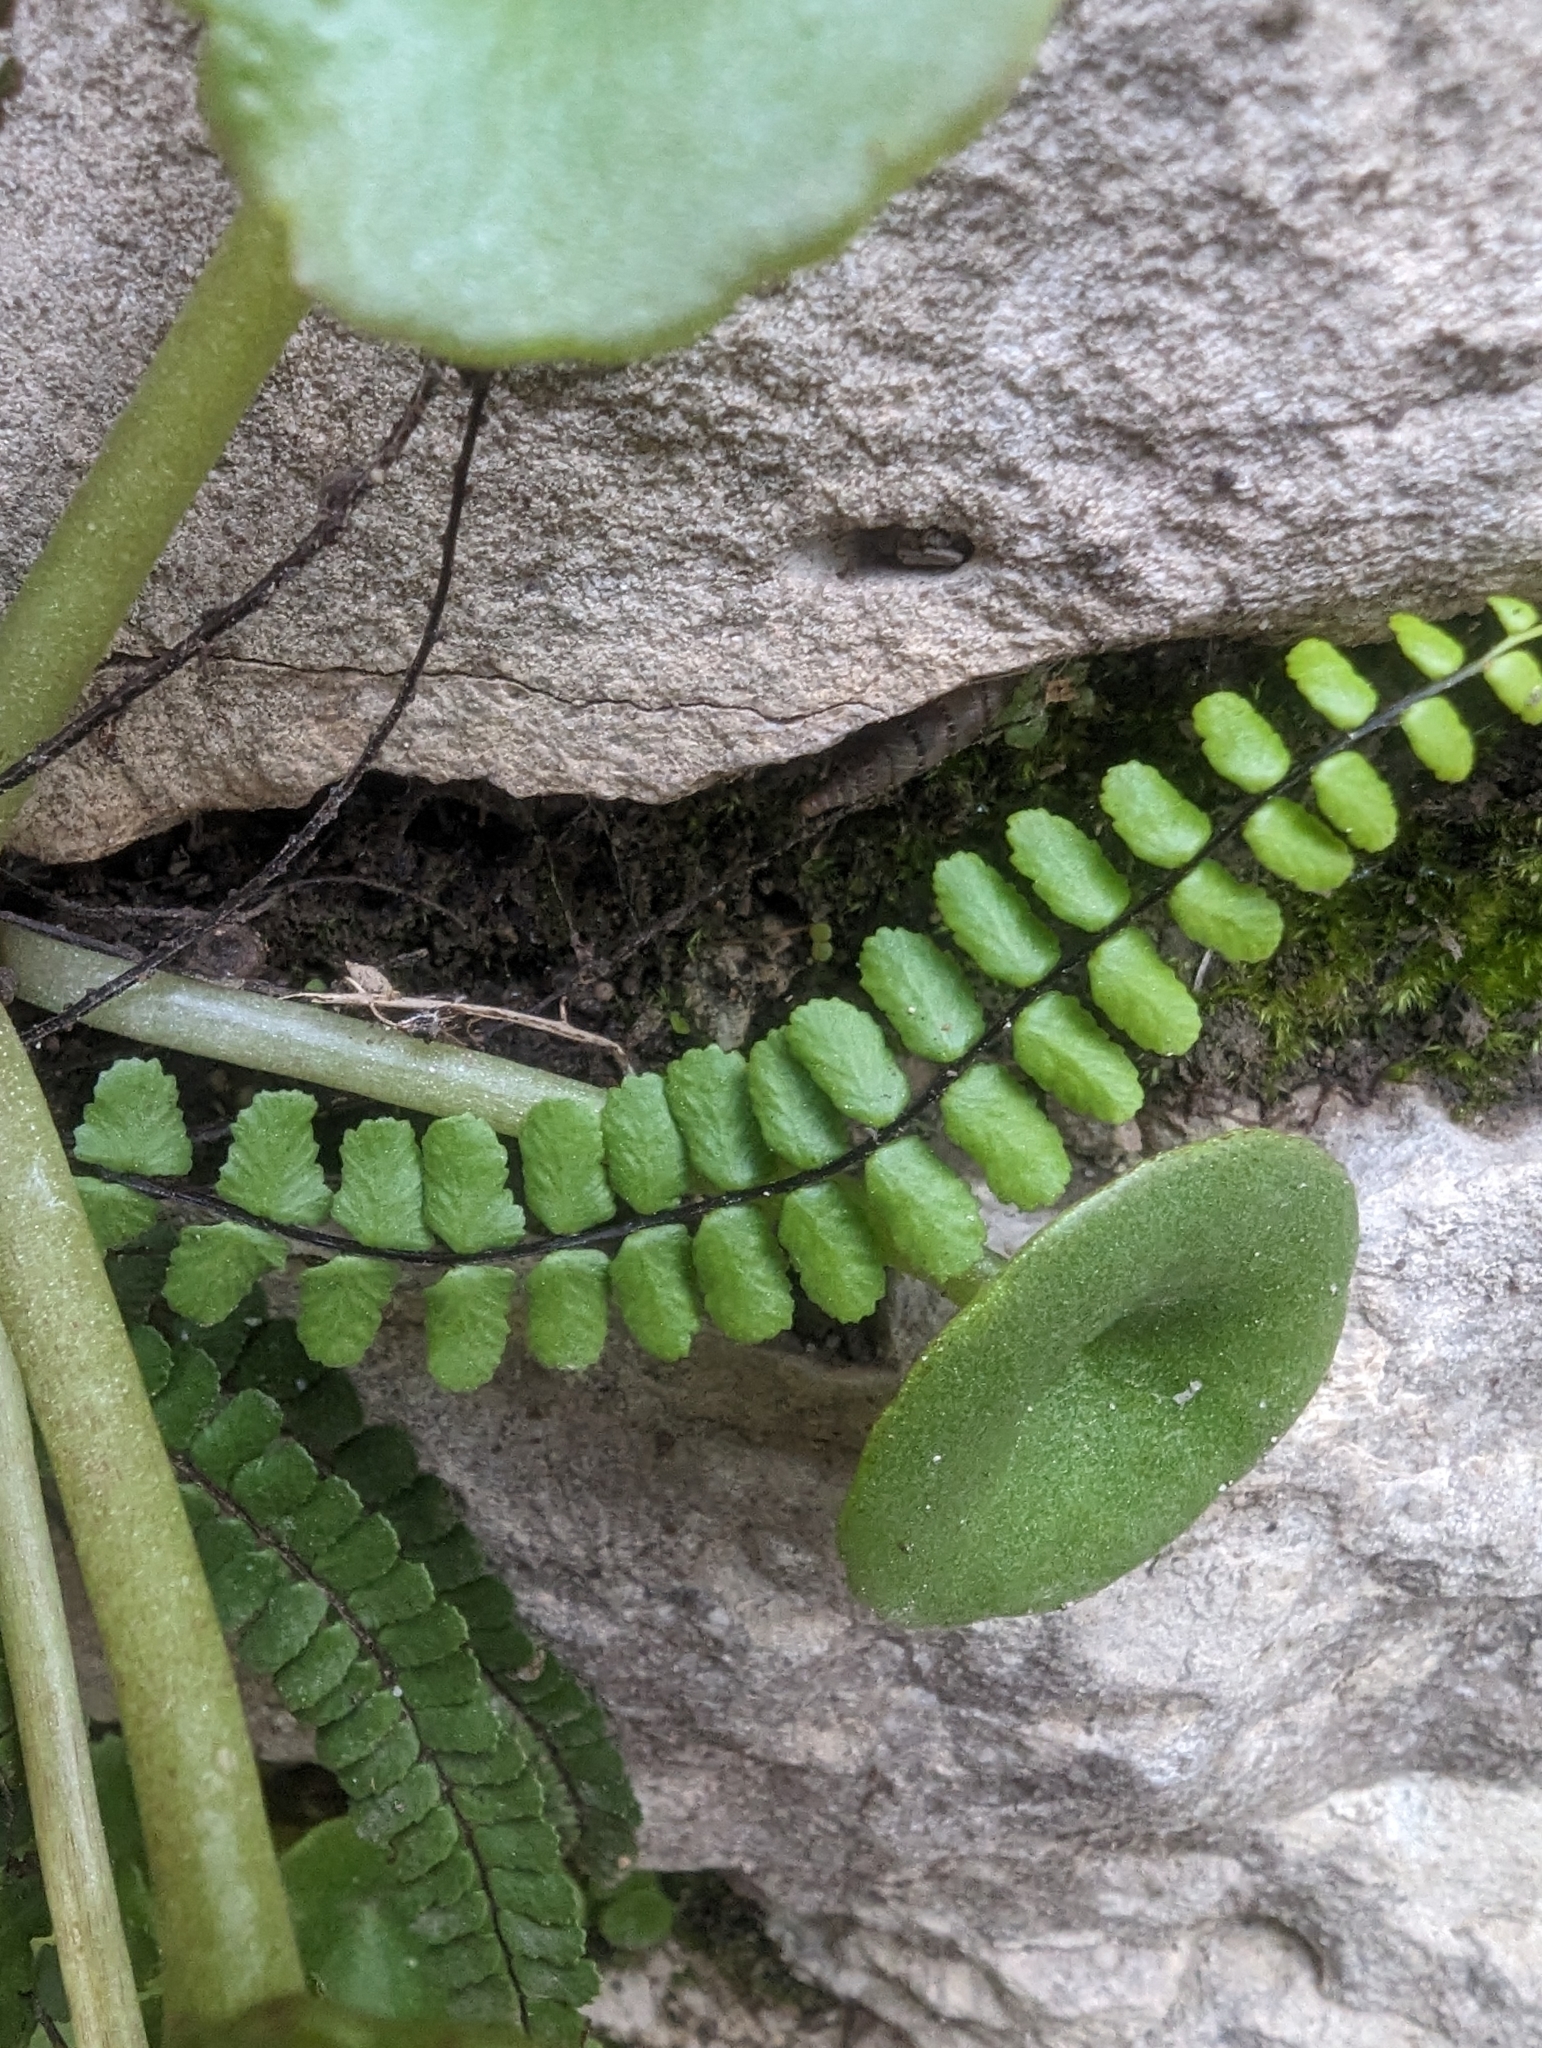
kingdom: Plantae
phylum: Tracheophyta
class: Polypodiopsida
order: Polypodiales
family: Aspleniaceae
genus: Asplenium
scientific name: Asplenium trichomanes
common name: Maidenhair spleenwort
